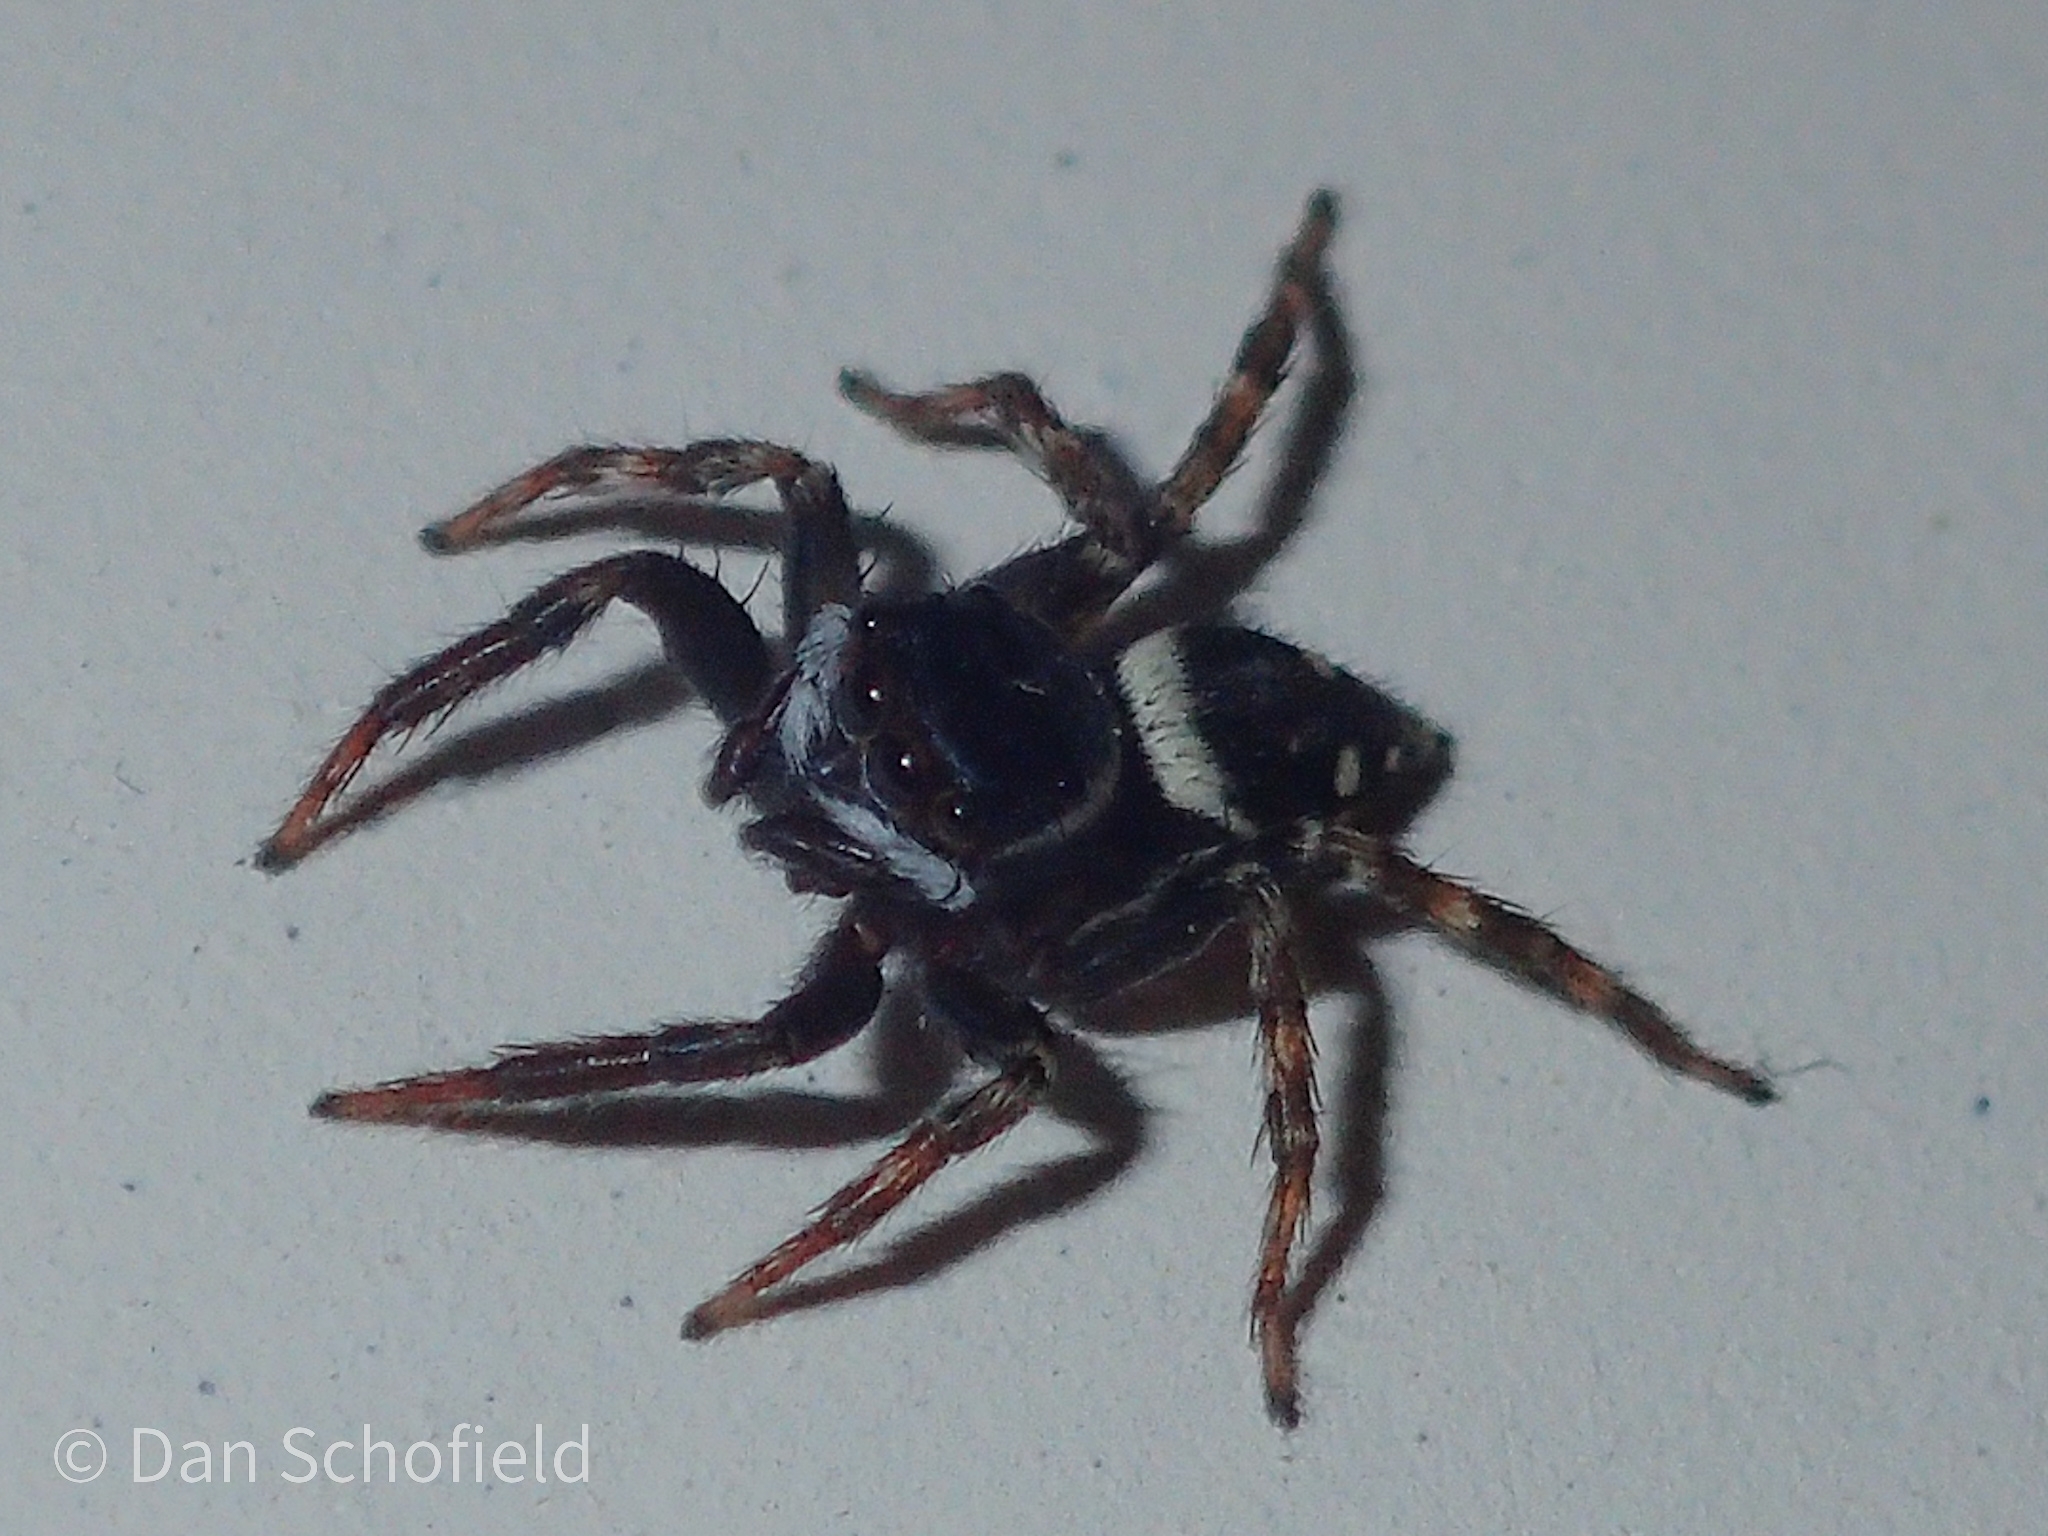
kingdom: Animalia
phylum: Arthropoda
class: Arachnida
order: Araneae
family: Salticidae
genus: Hasarius
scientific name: Hasarius adansoni
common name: Jumping spider
